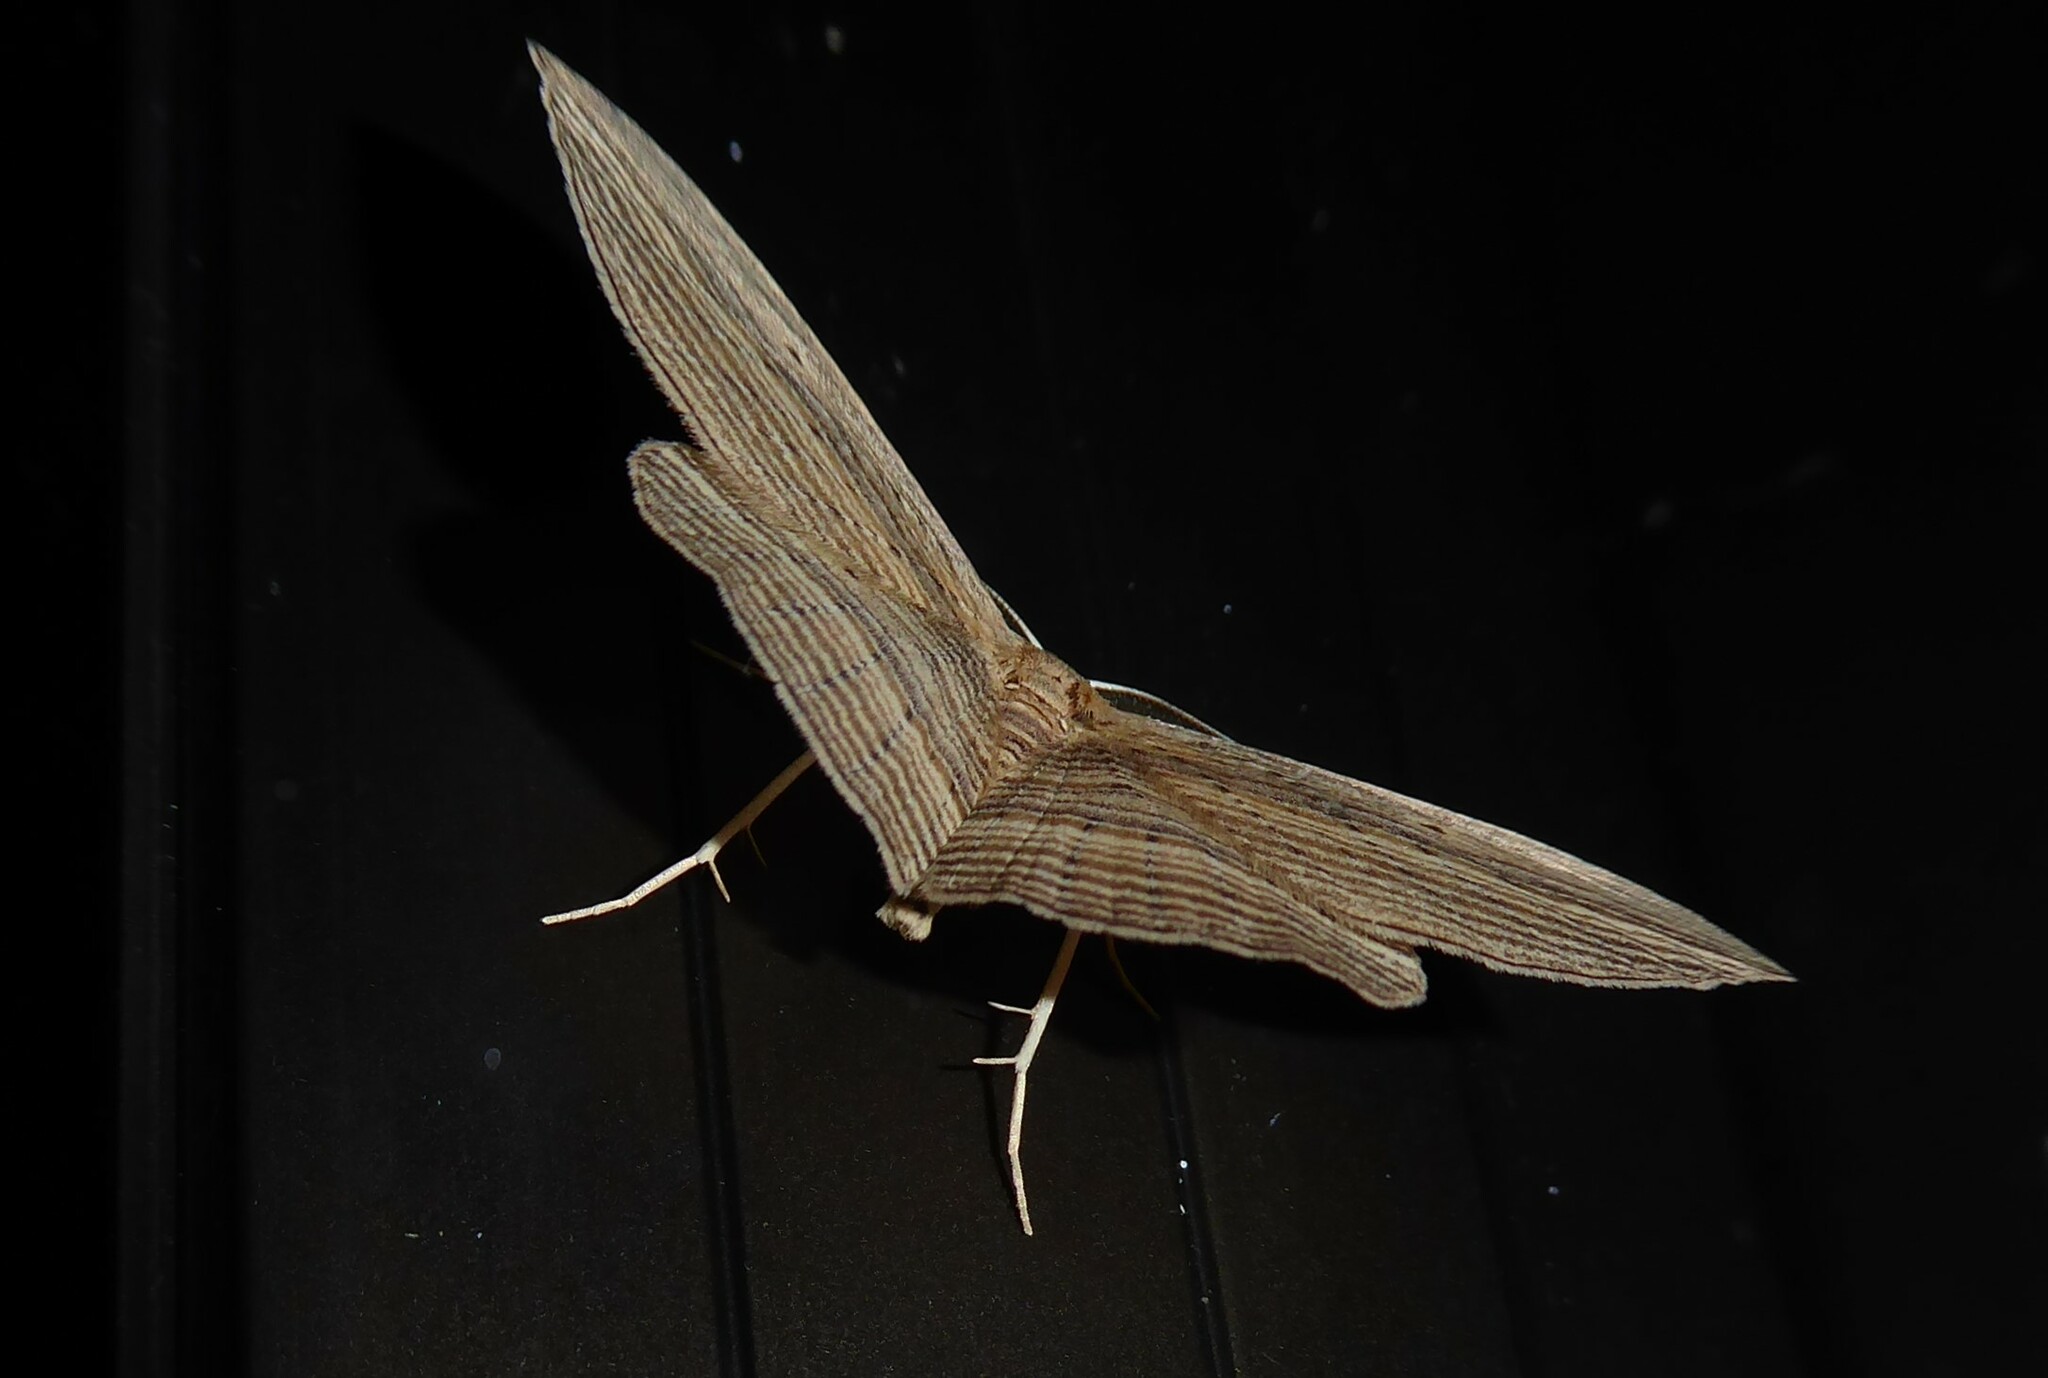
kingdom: Animalia
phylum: Arthropoda
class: Insecta
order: Lepidoptera
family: Geometridae
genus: Epiphryne
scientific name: Epiphryne verriculata
